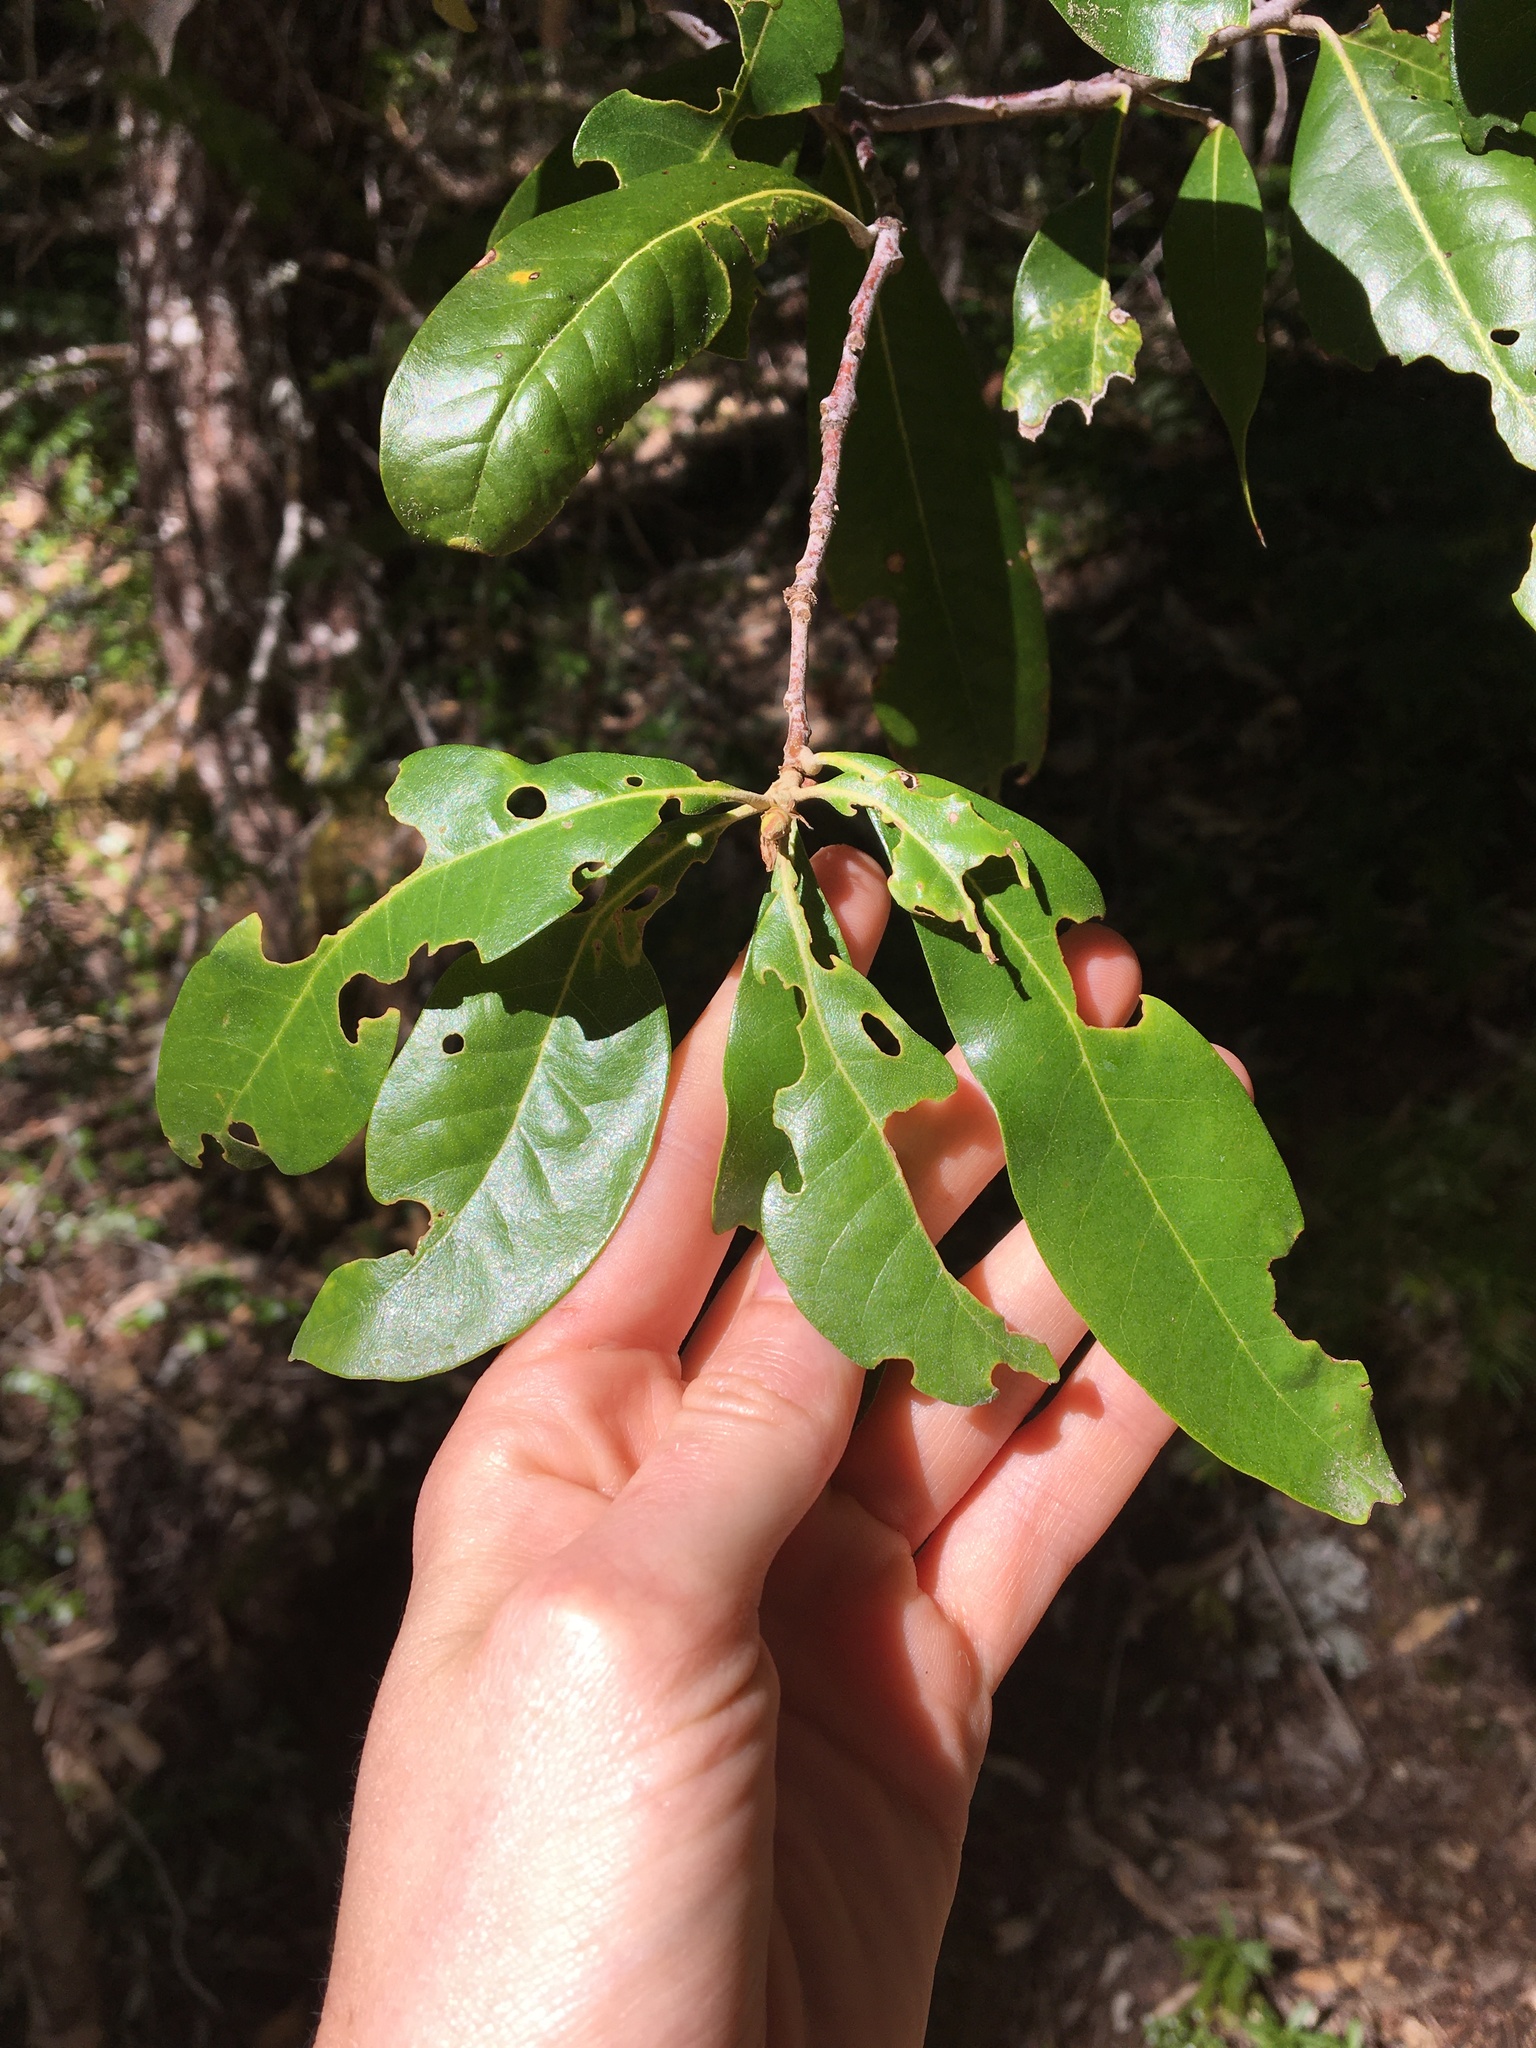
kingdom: Plantae
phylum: Tracheophyta
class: Magnoliopsida
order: Fagales
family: Fagaceae
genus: Chrysolepis
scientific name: Chrysolepis chrysophylla
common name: Giant chinquapin
